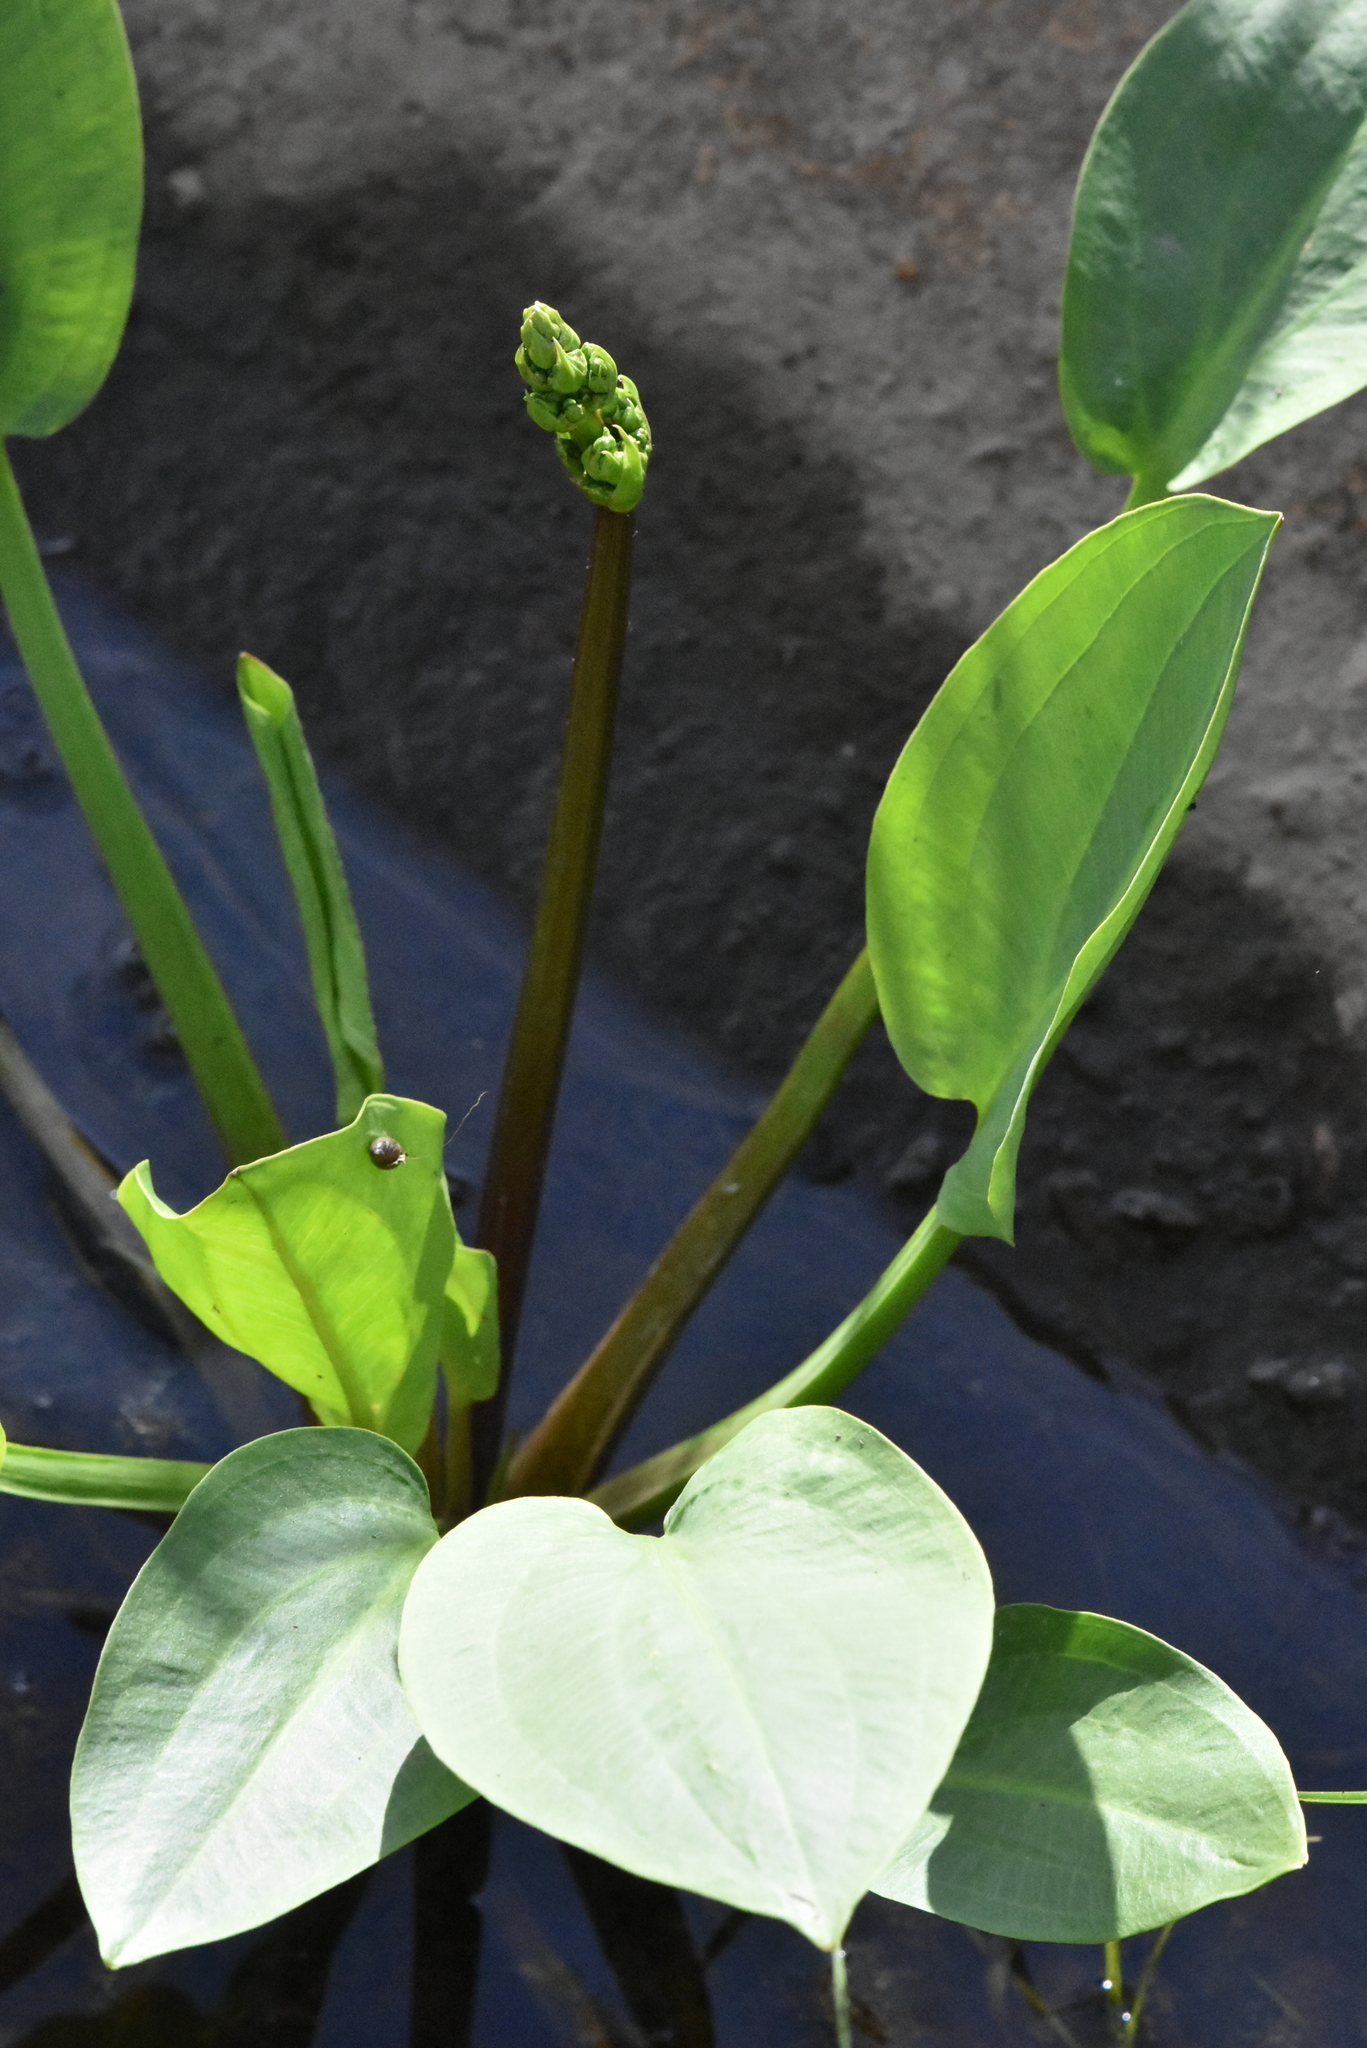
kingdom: Plantae
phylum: Tracheophyta
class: Liliopsida
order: Alismatales
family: Alismataceae
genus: Alisma
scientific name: Alisma plantago-aquatica
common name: Water-plantain
